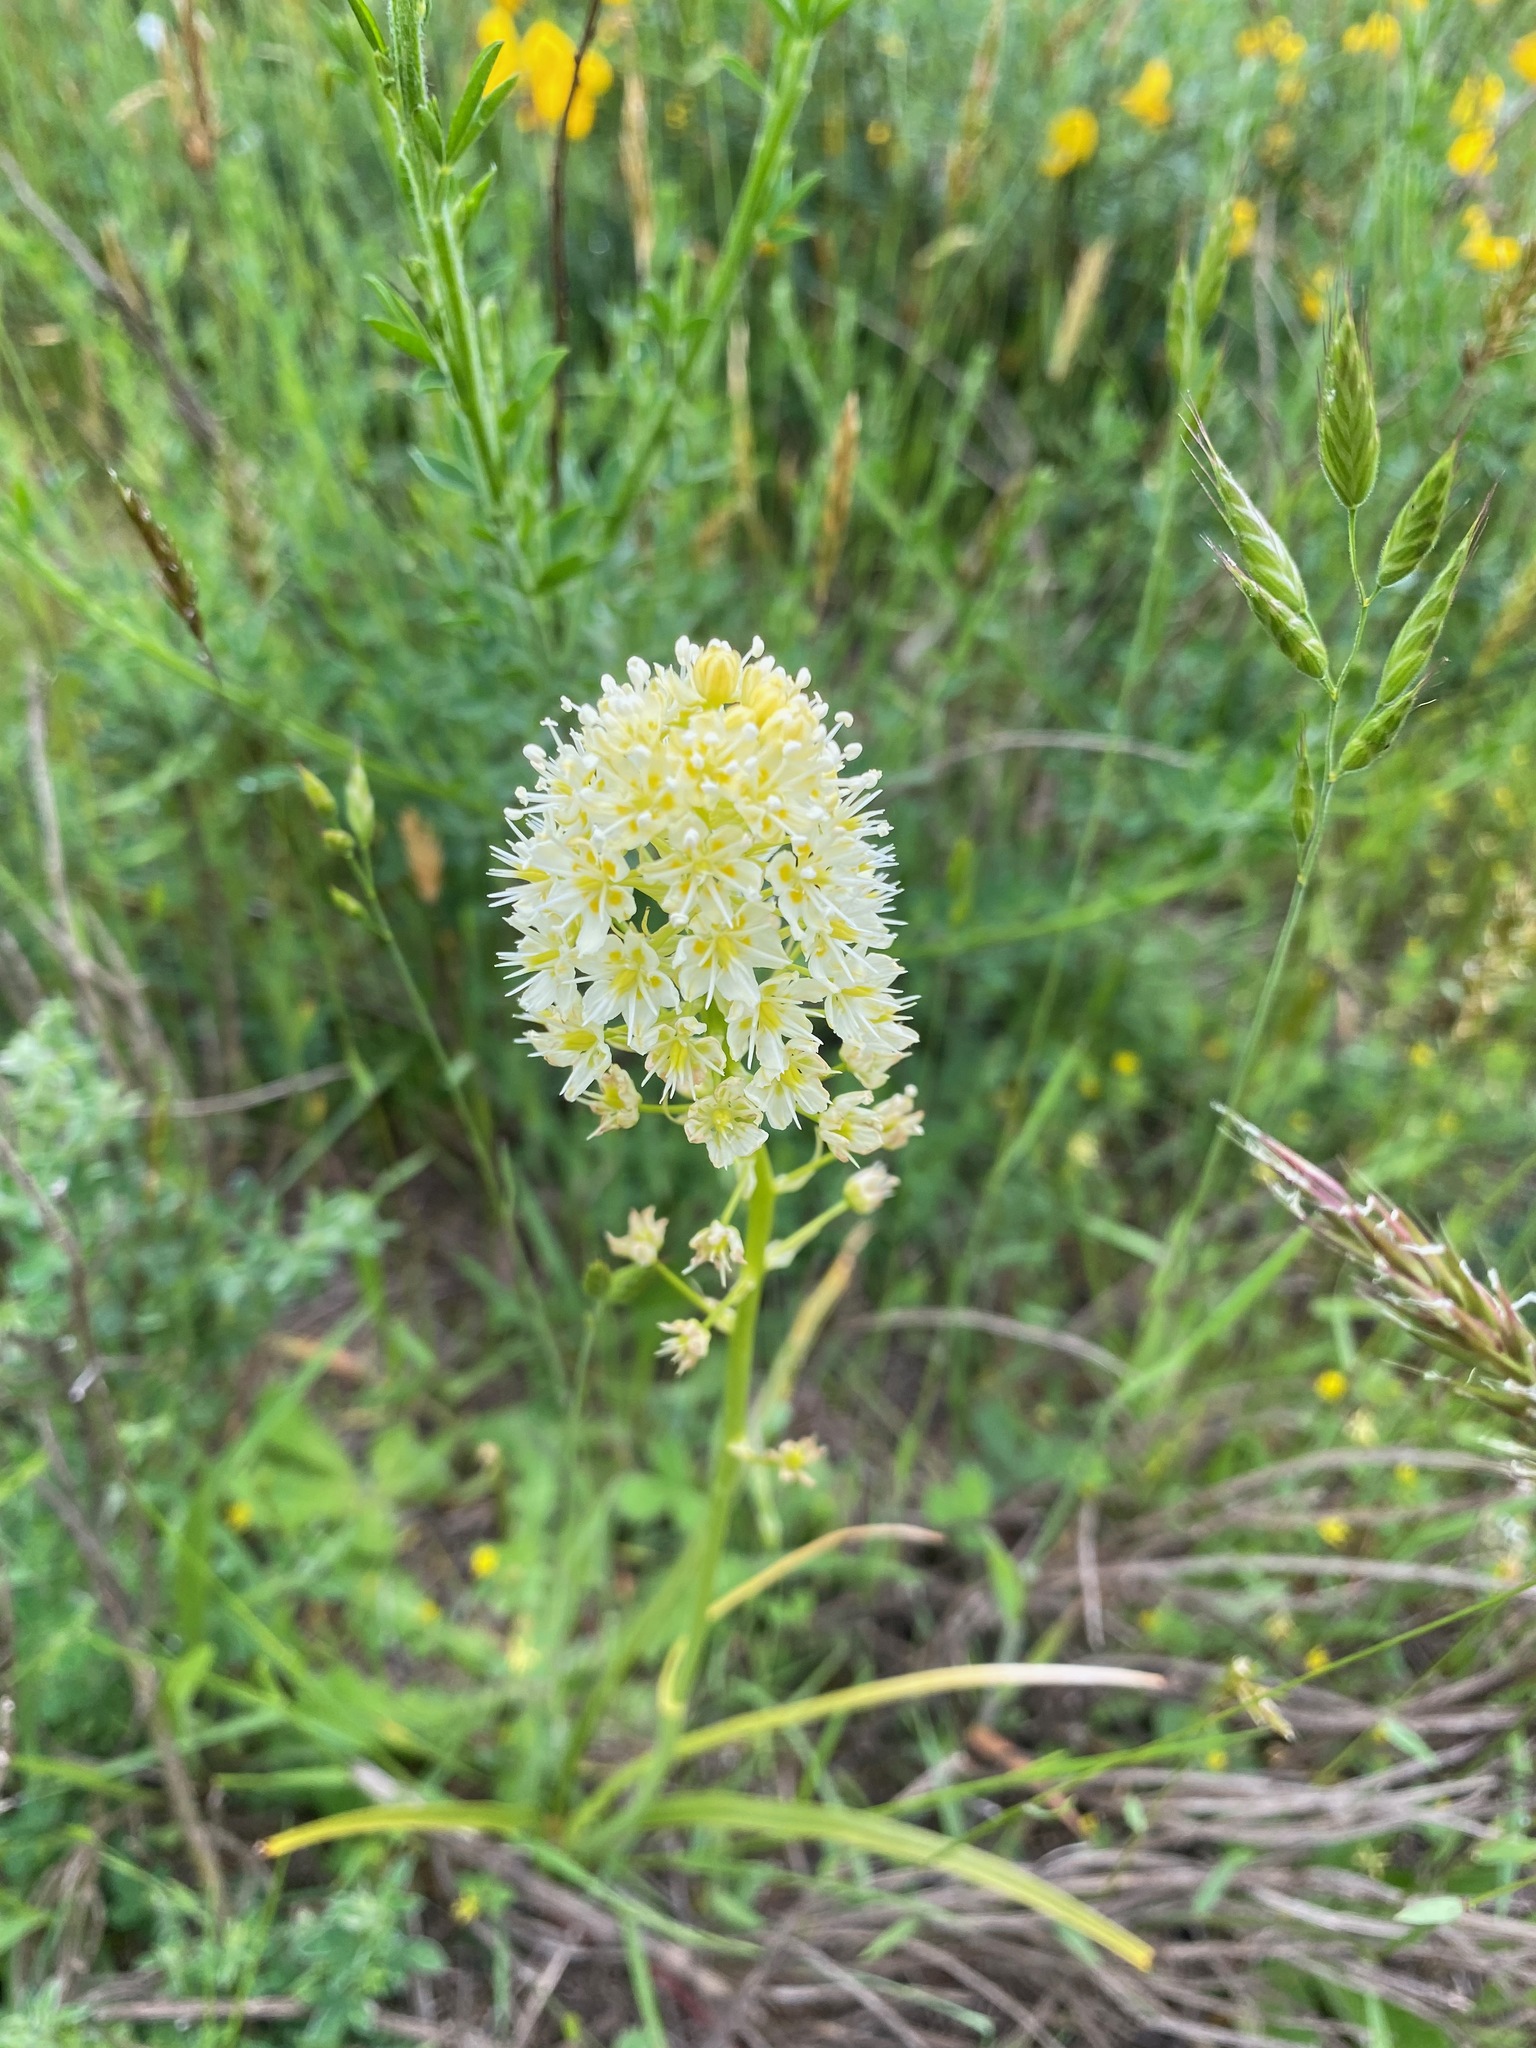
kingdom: Plantae
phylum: Tracheophyta
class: Liliopsida
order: Liliales
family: Melanthiaceae
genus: Toxicoscordion
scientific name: Toxicoscordion venenosum
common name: Meadow death camas
